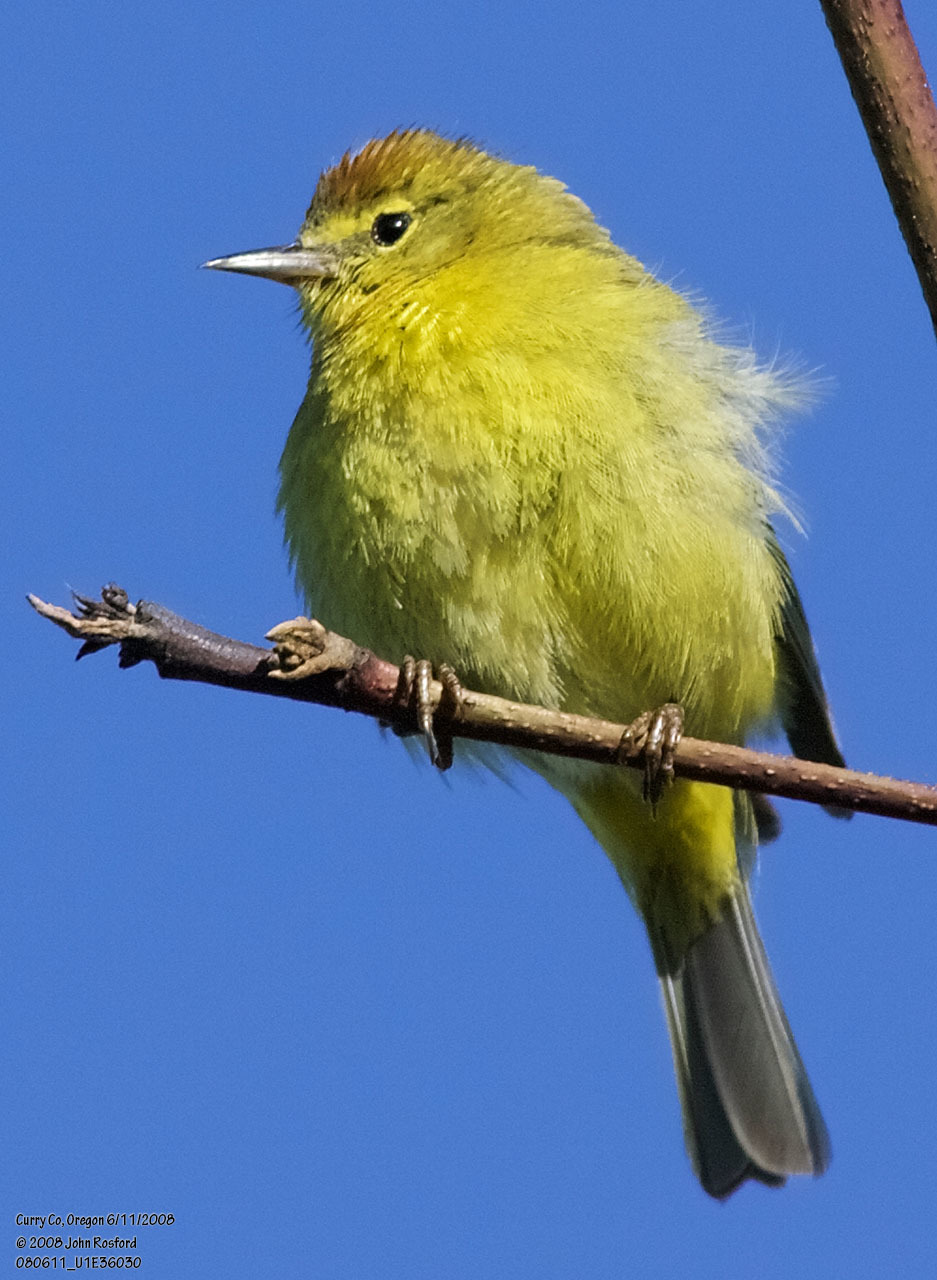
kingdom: Animalia
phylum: Chordata
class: Aves
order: Passeriformes
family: Parulidae
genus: Leiothlypis
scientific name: Leiothlypis celata
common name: Orange-crowned warbler
